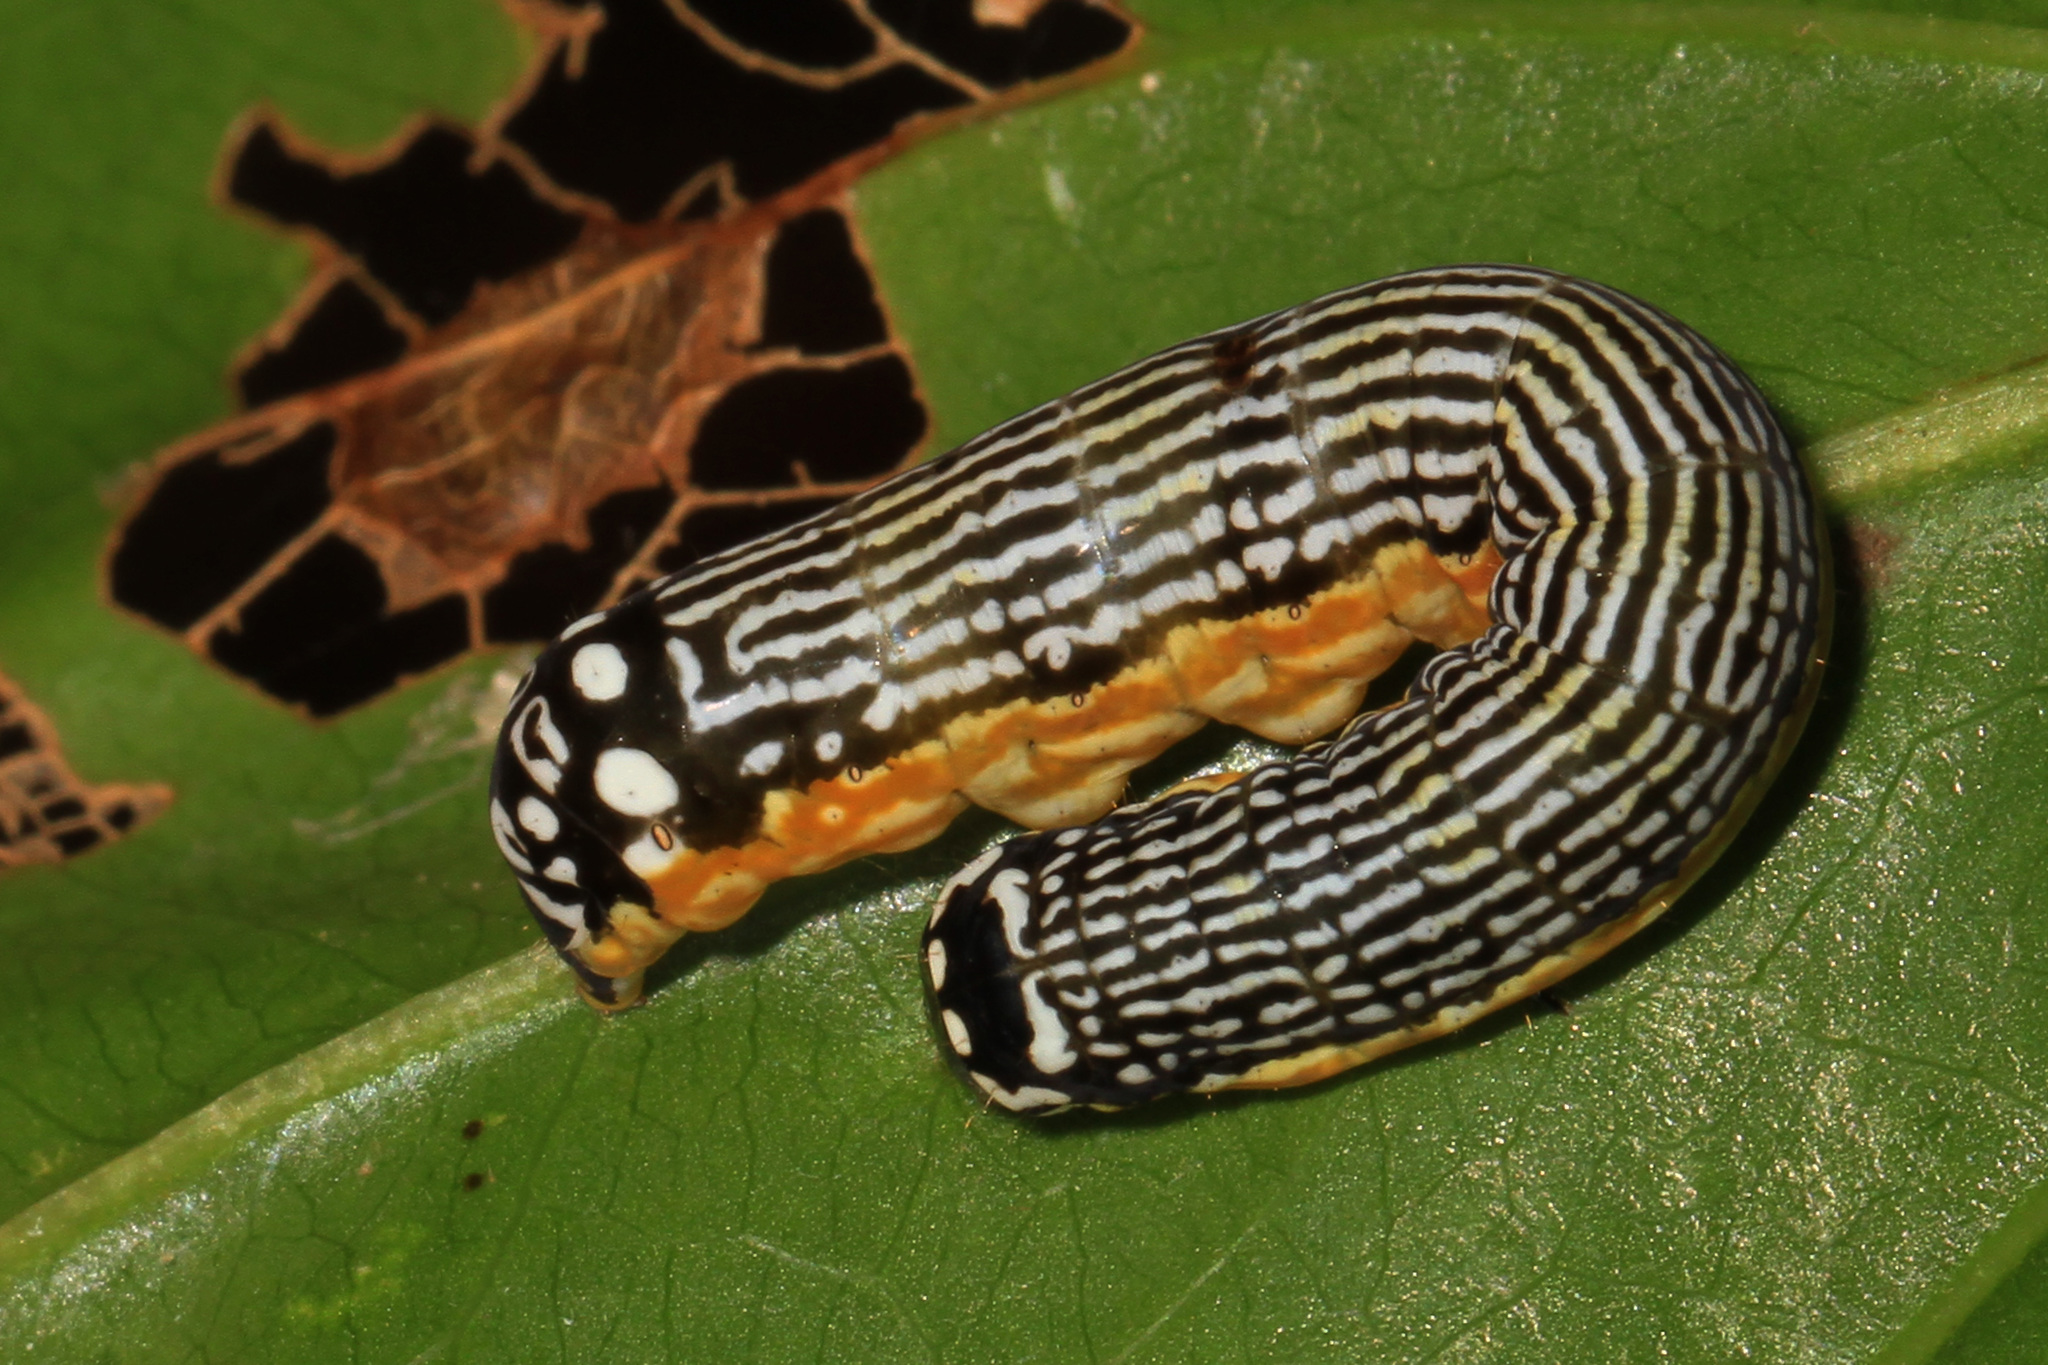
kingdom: Animalia
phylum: Arthropoda
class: Insecta
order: Lepidoptera
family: Noctuidae
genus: Phosphila
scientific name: Phosphila turbulenta
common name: Turbulent phosphila moth
